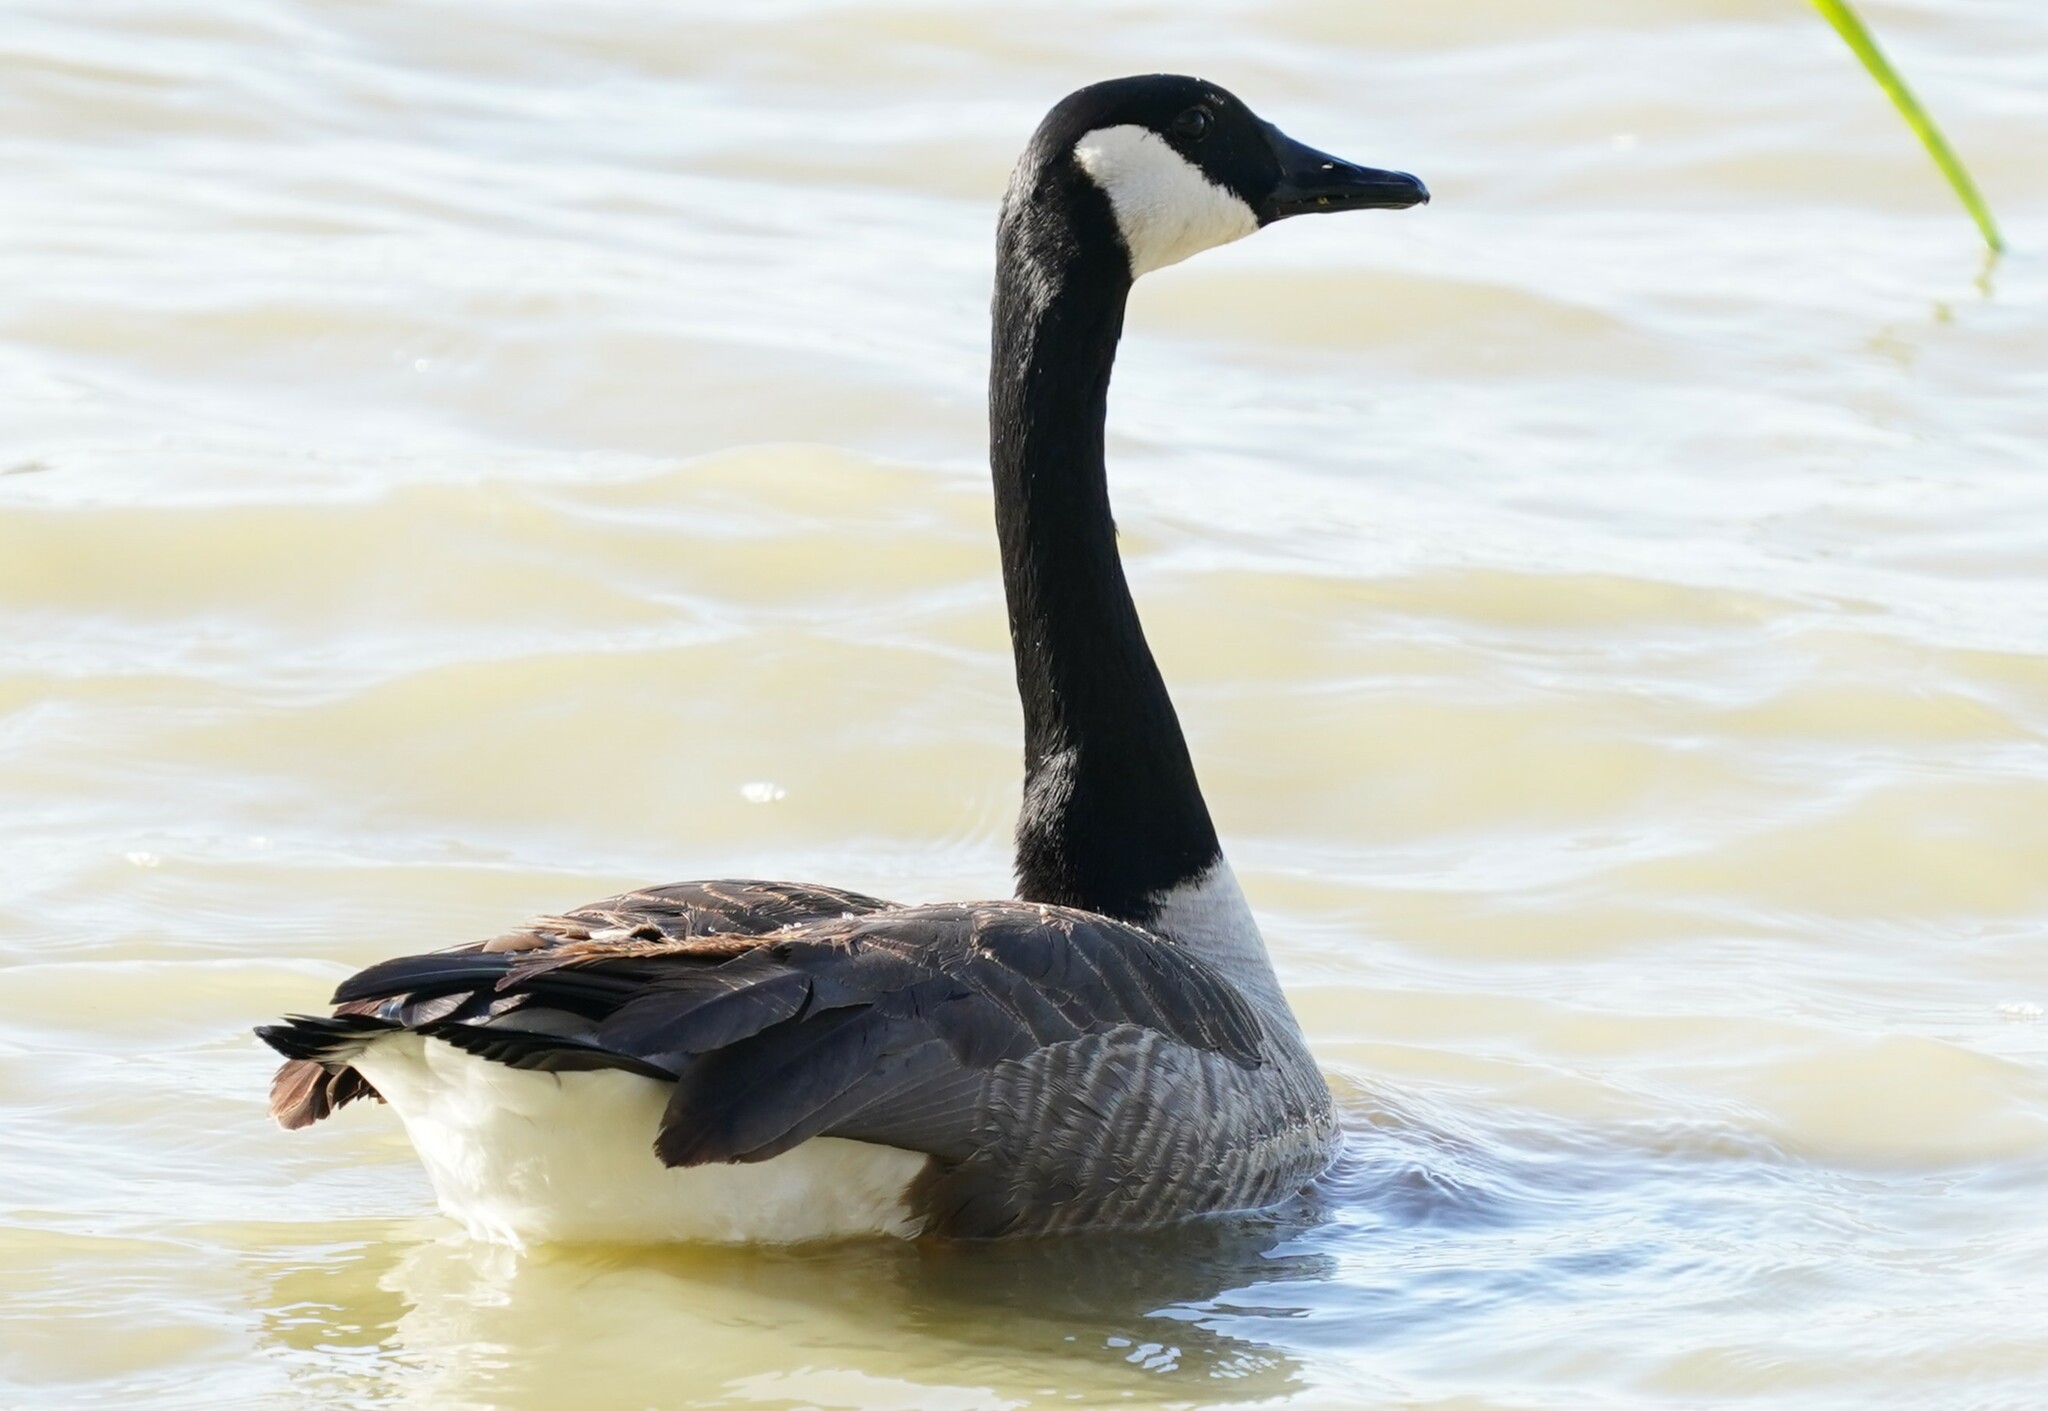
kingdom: Animalia
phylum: Chordata
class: Aves
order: Anseriformes
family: Anatidae
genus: Branta
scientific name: Branta canadensis
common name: Canada goose
